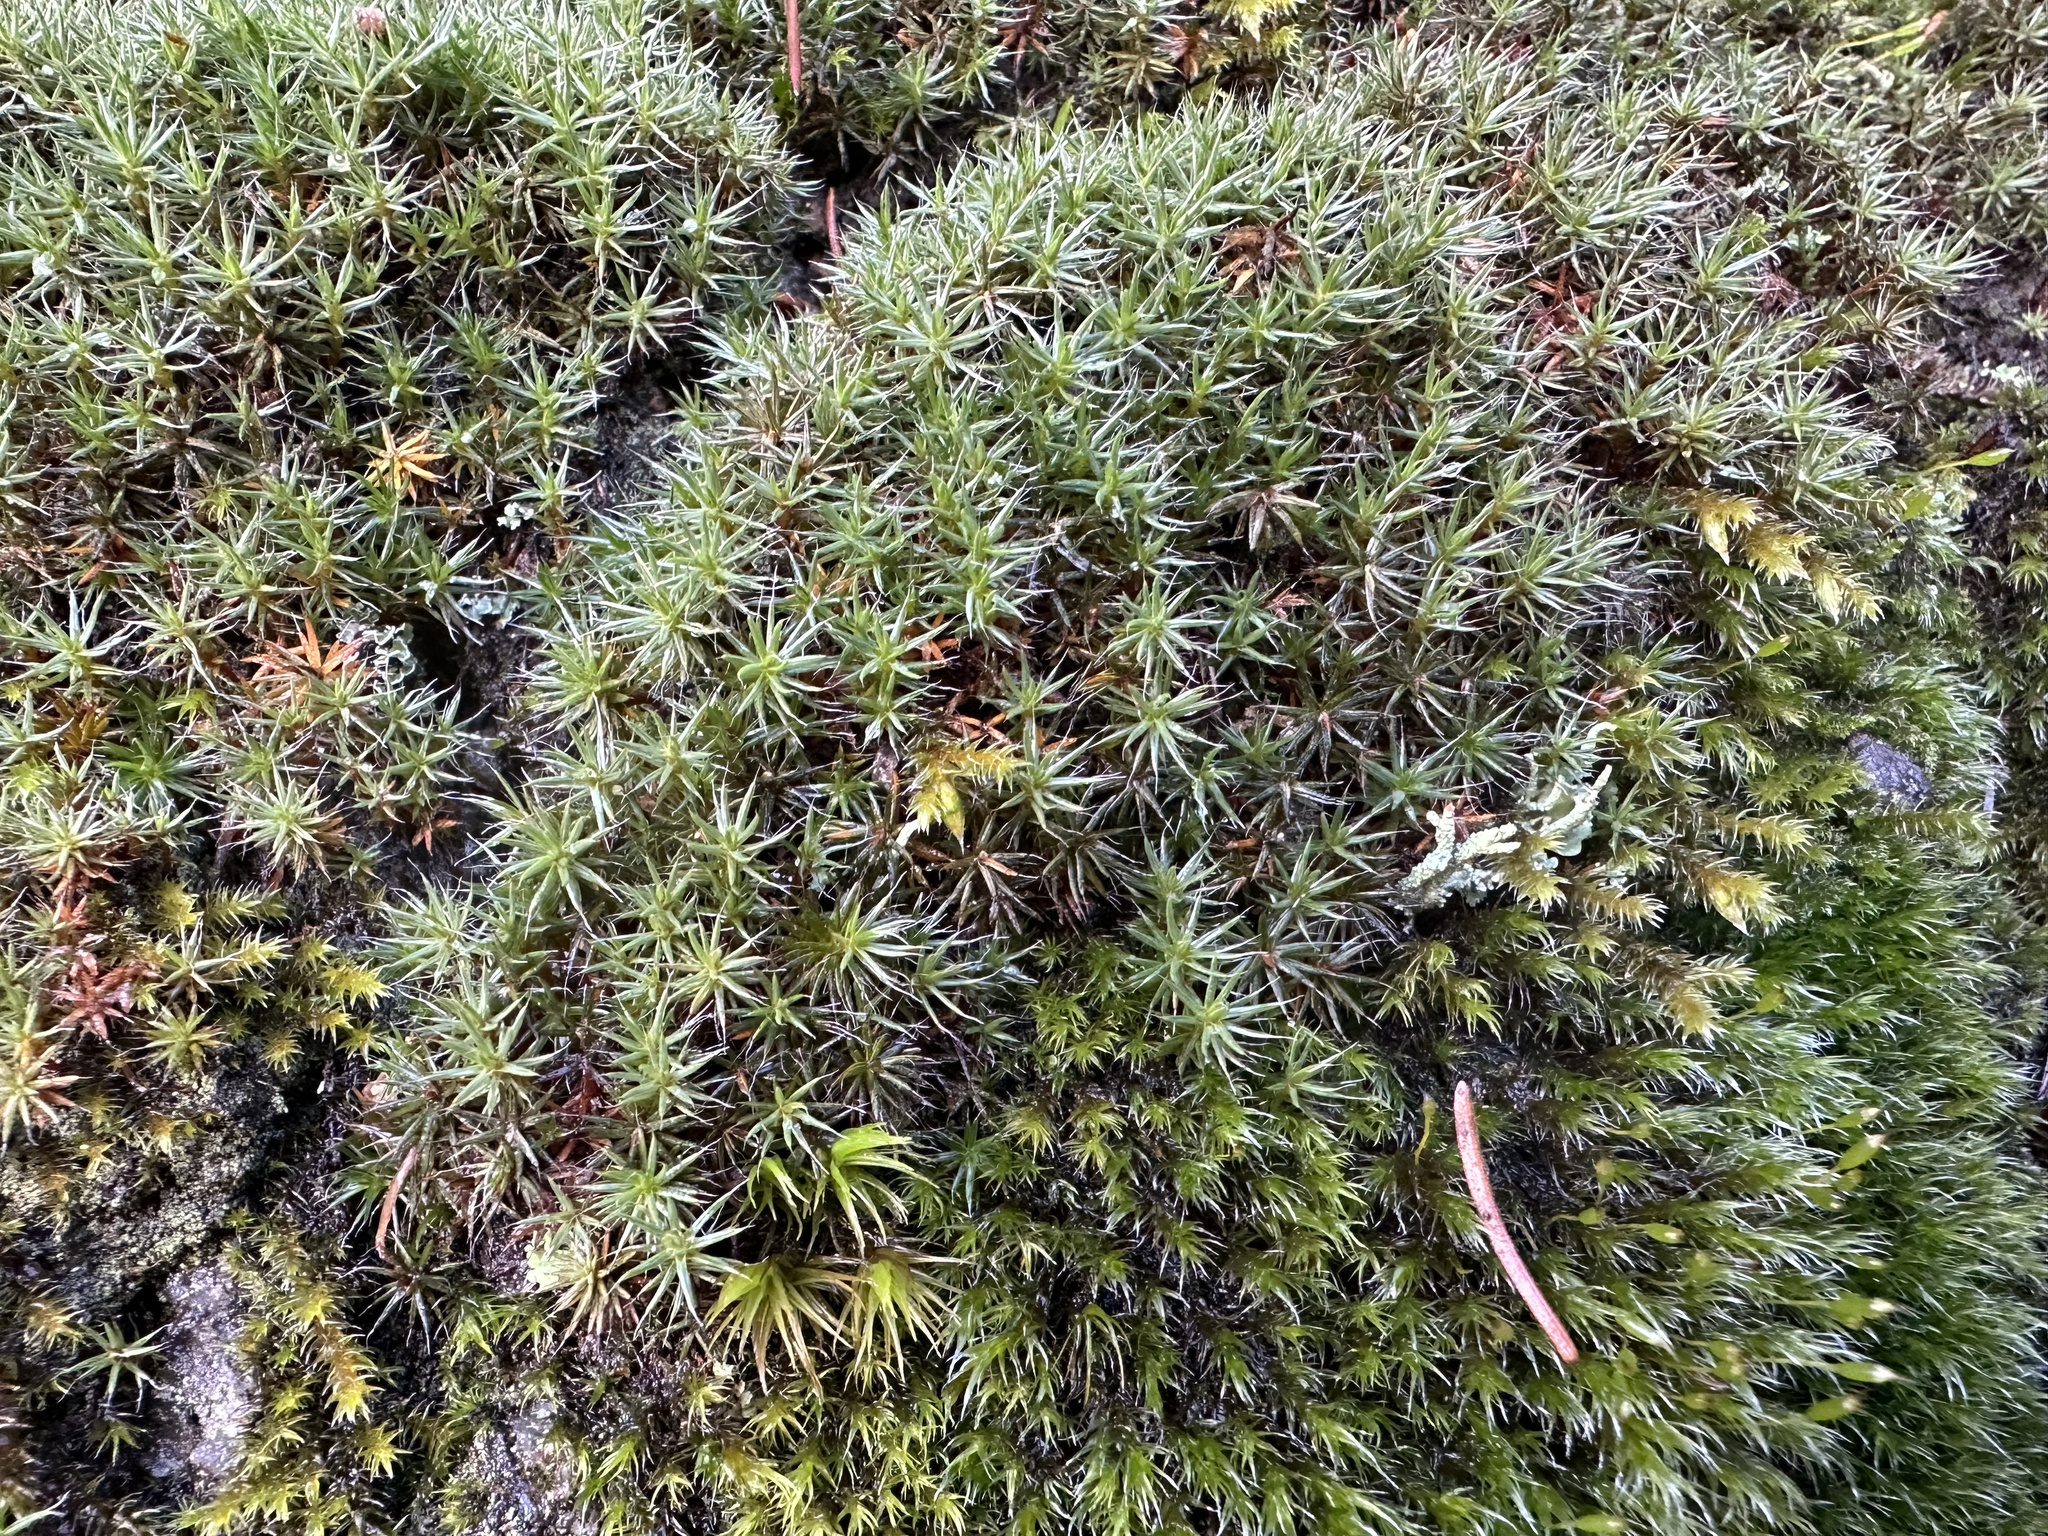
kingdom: Plantae
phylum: Bryophyta
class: Polytrichopsida
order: Polytrichales
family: Polytrichaceae
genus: Polytrichum
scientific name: Polytrichum piliferum
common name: Bristly haircap
